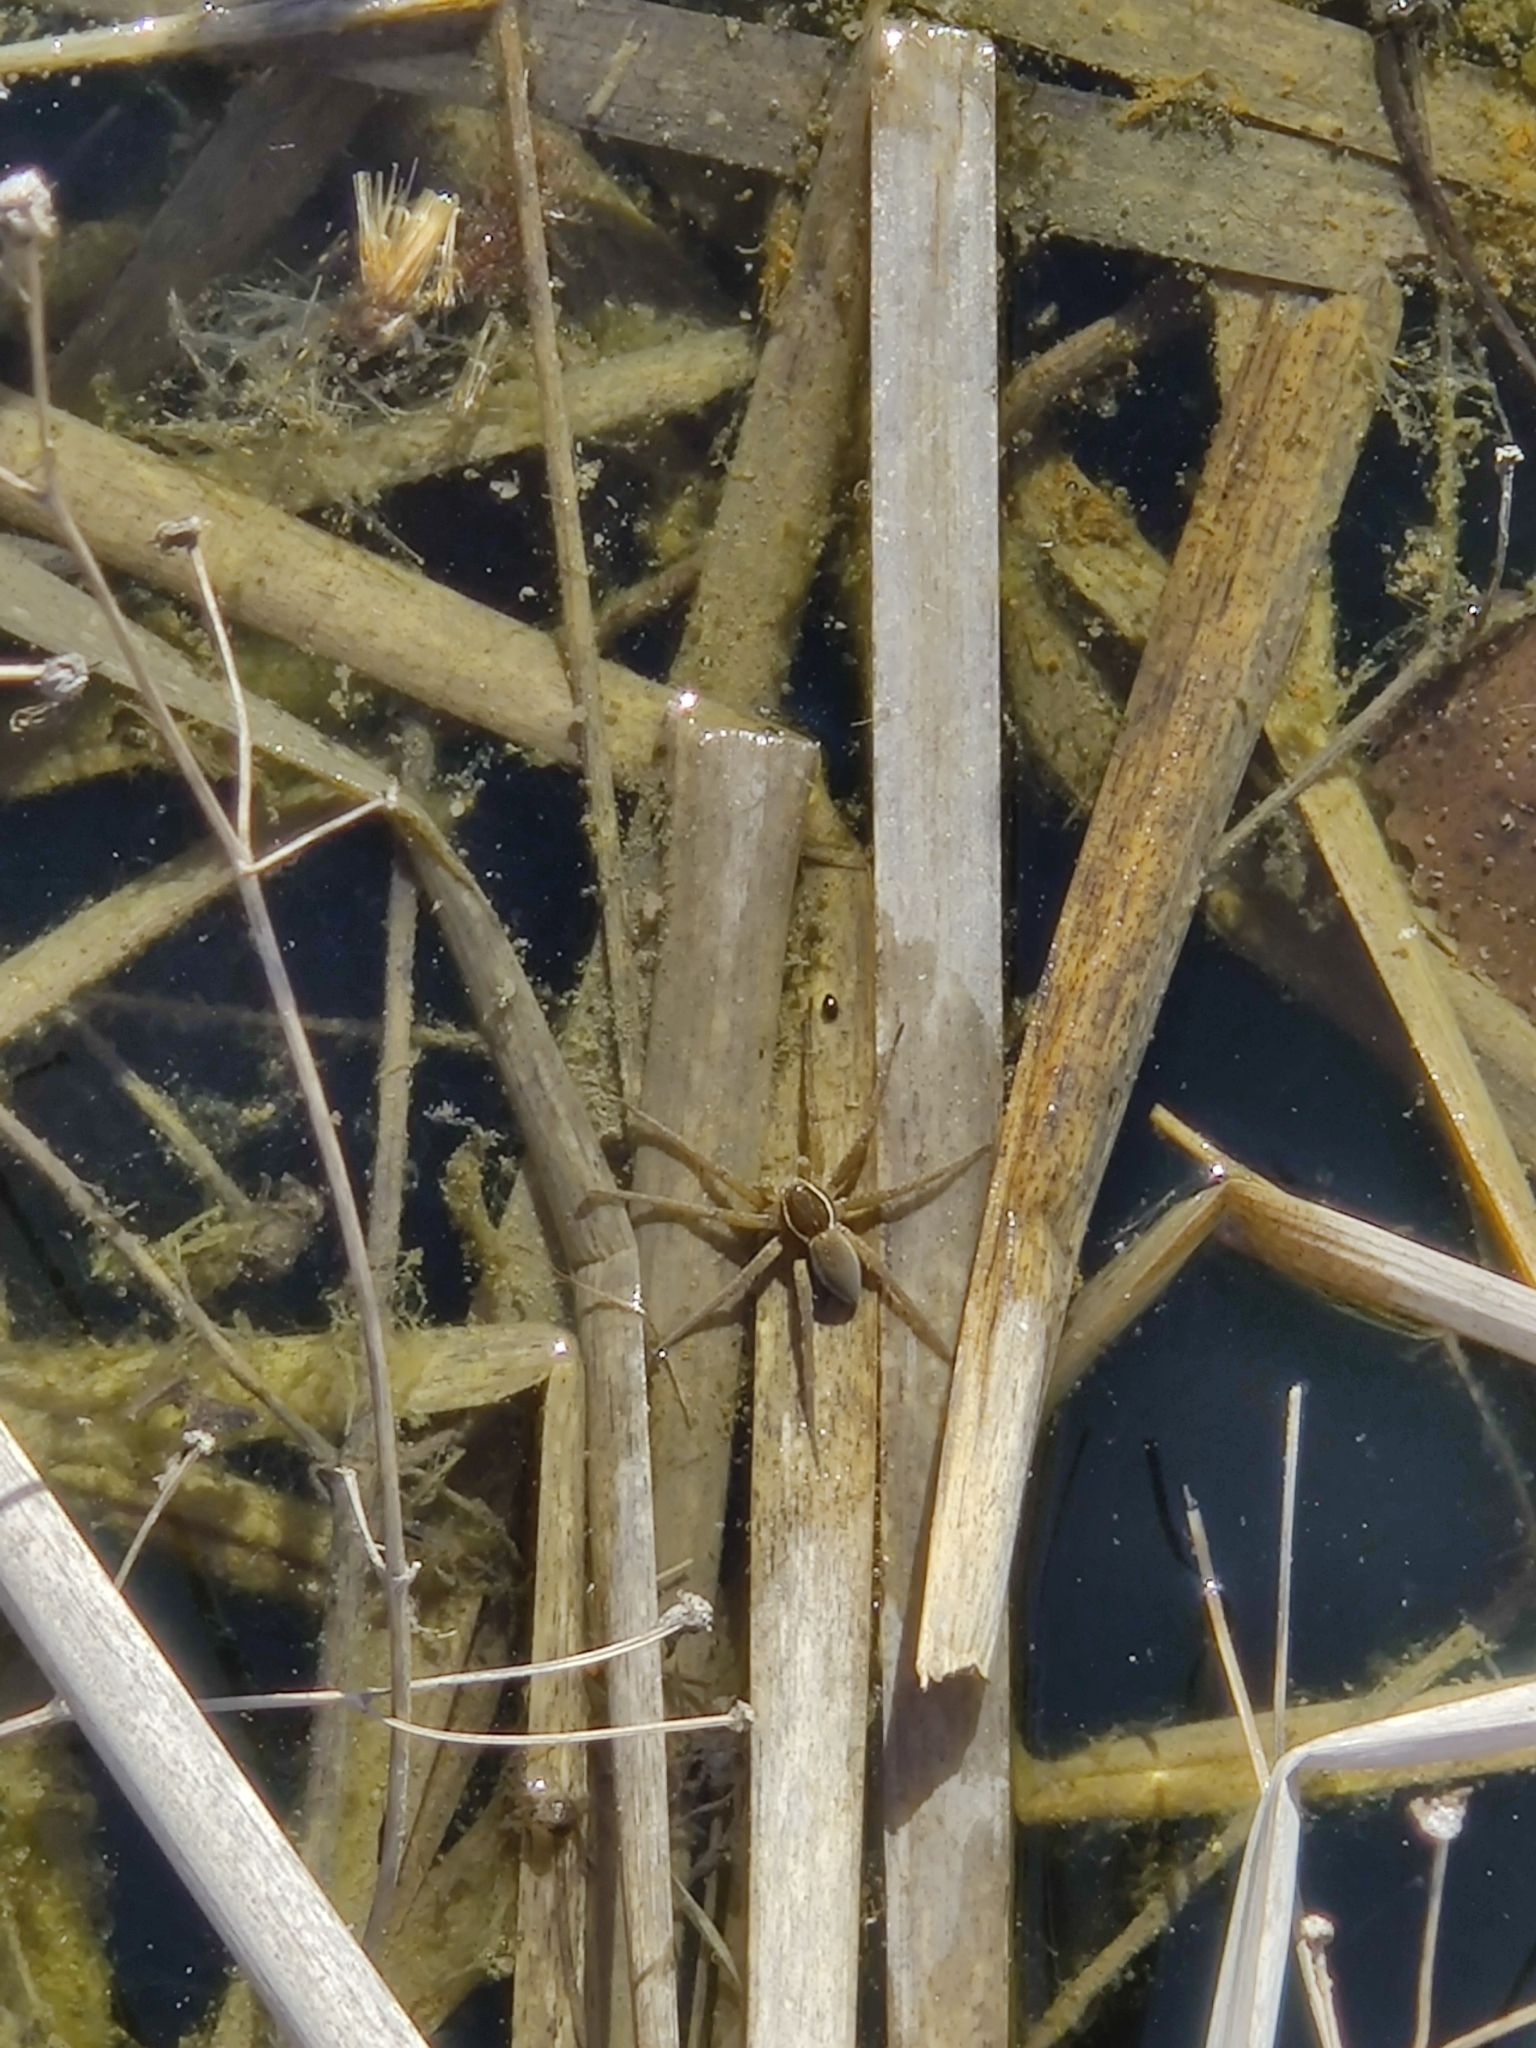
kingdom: Animalia
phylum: Arthropoda
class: Arachnida
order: Araneae
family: Pisauridae
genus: Dolomedes
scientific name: Dolomedes triton
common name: Six-spotted fishing spider
